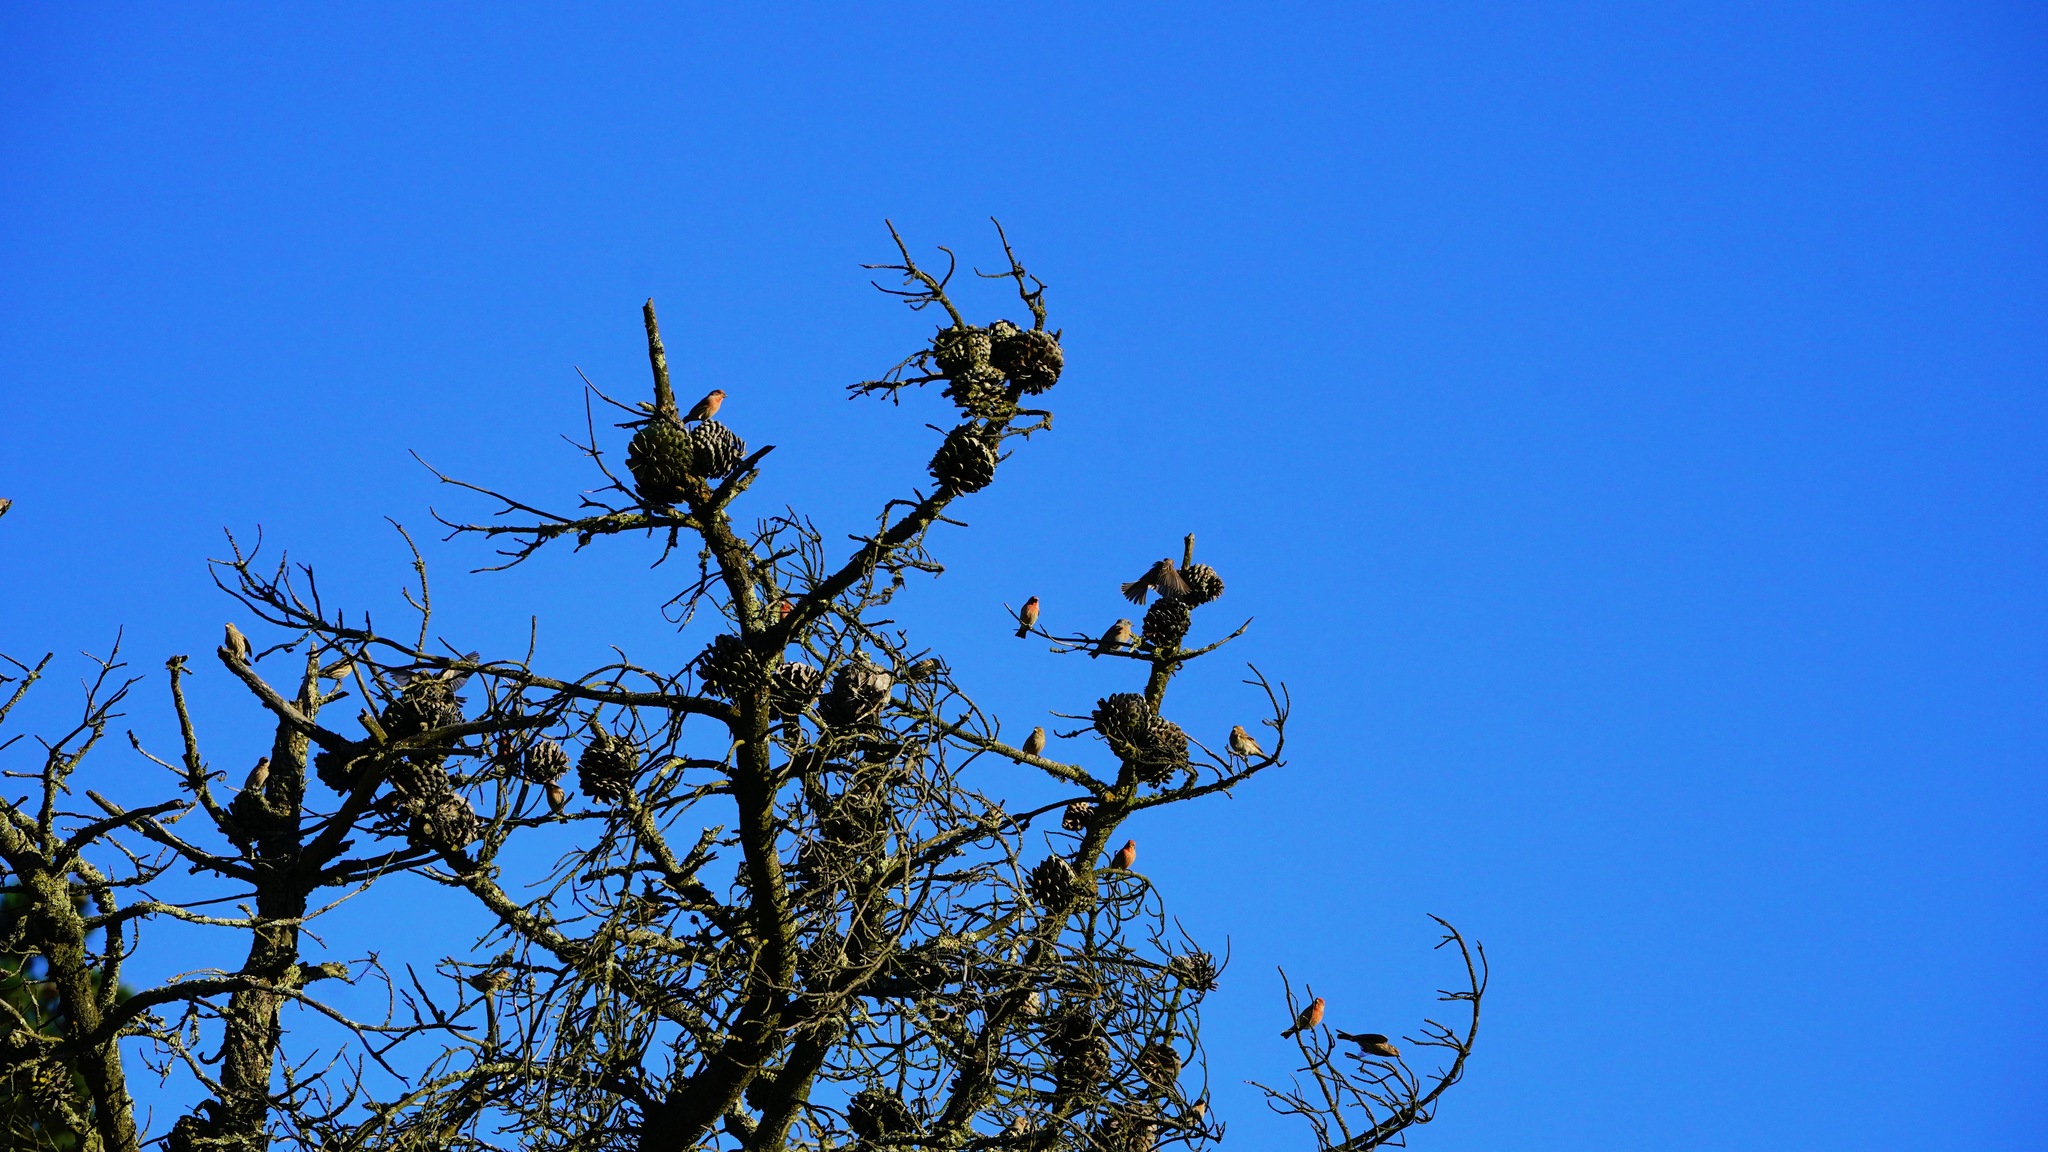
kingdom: Animalia
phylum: Chordata
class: Aves
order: Passeriformes
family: Fringillidae
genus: Haemorhous
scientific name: Haemorhous mexicanus
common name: House finch
